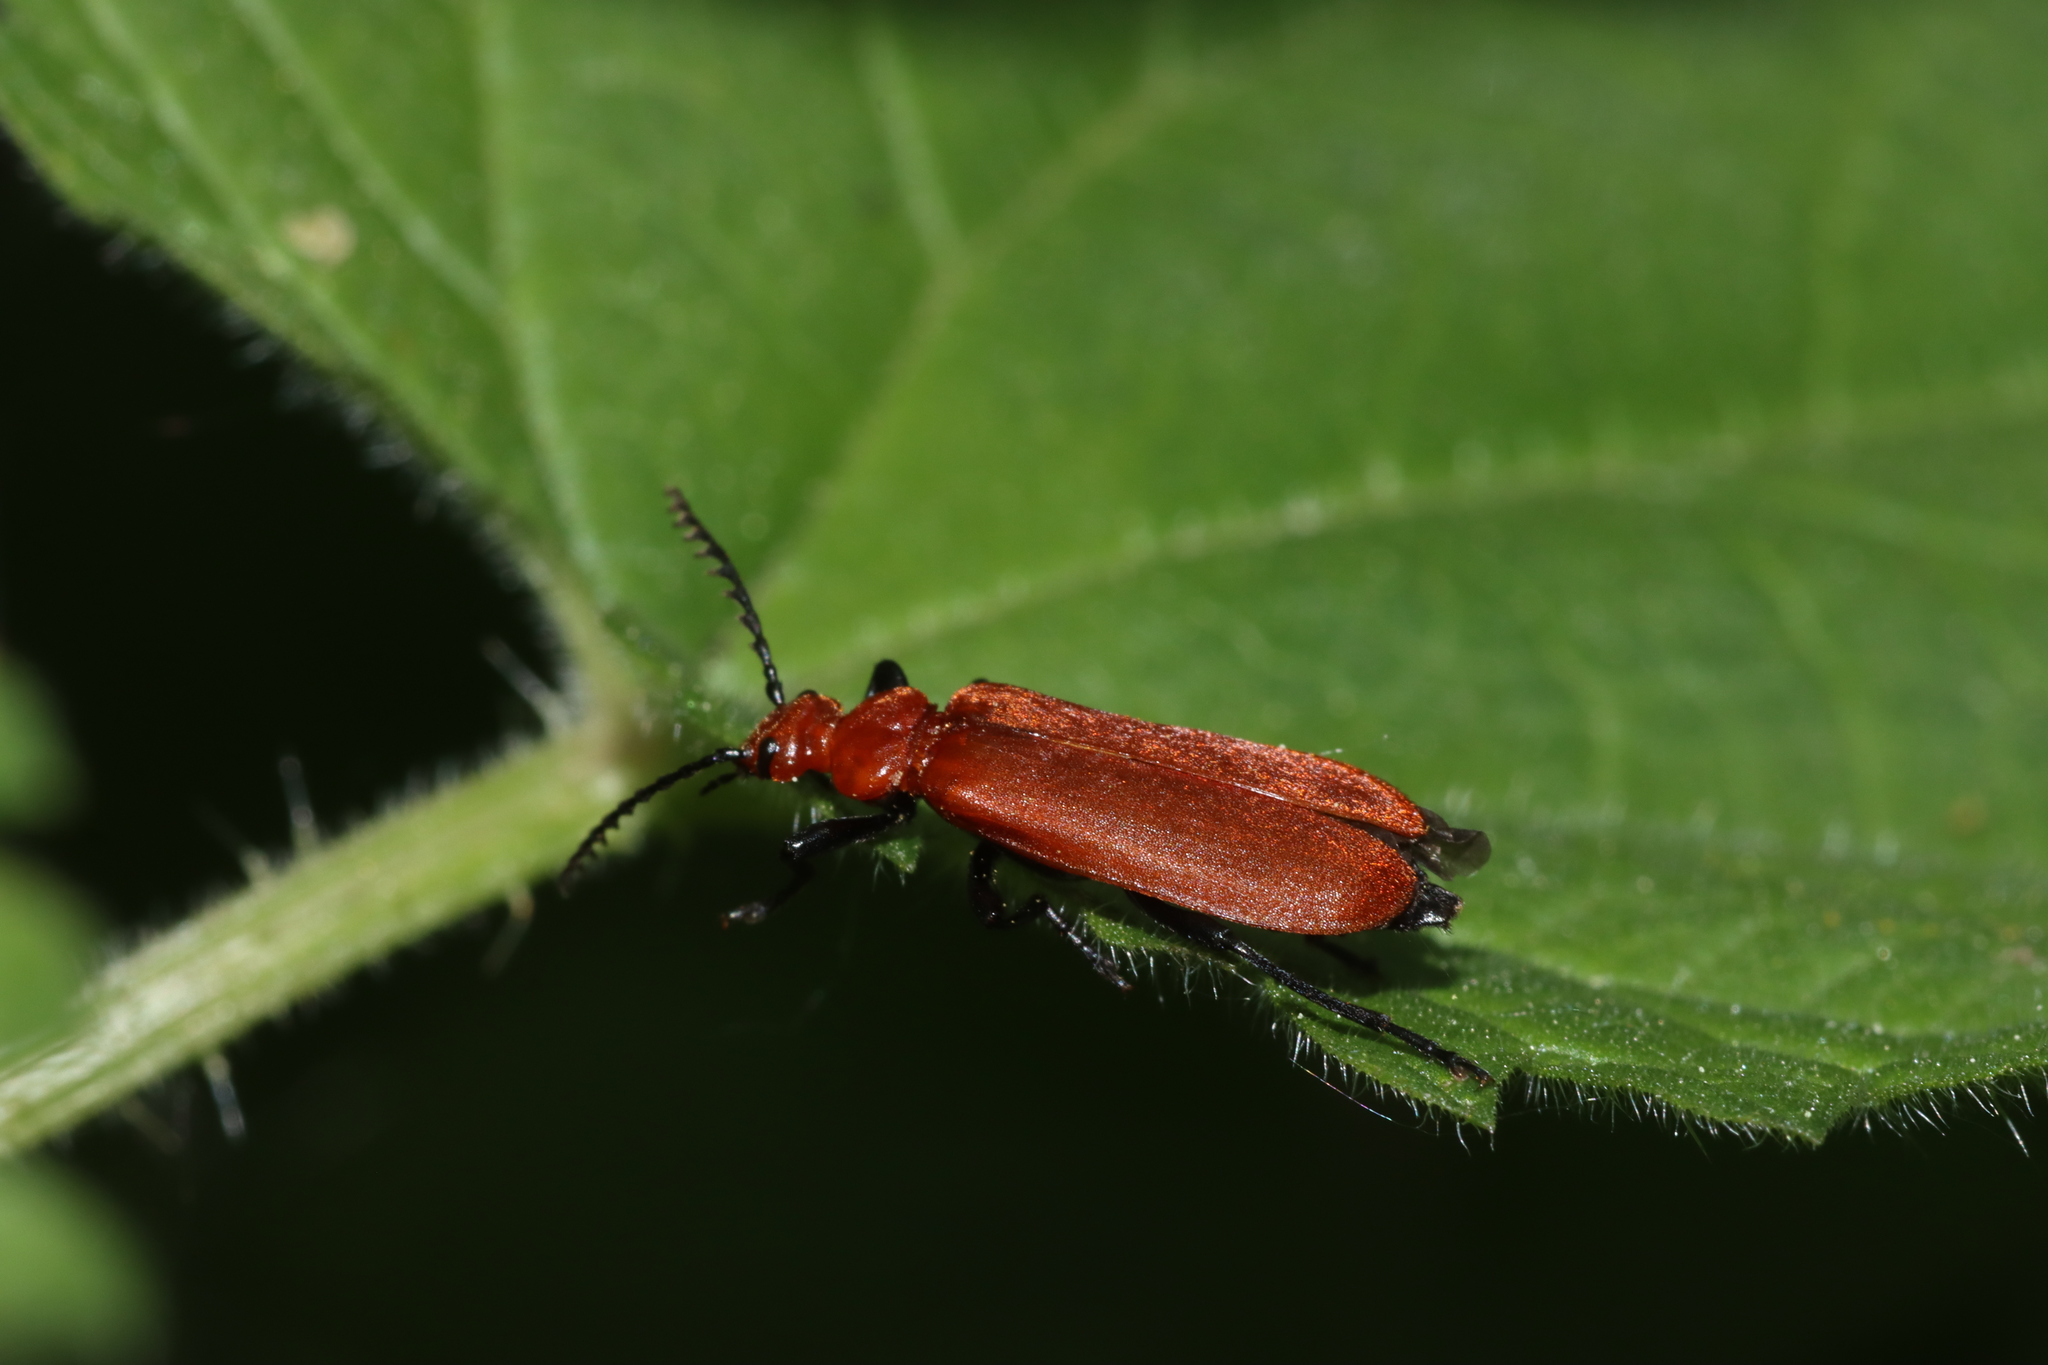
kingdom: Animalia
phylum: Arthropoda
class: Insecta
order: Coleoptera
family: Pyrochroidae
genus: Pyrochroa
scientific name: Pyrochroa serraticornis
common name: Red-headed cardinal beetle
